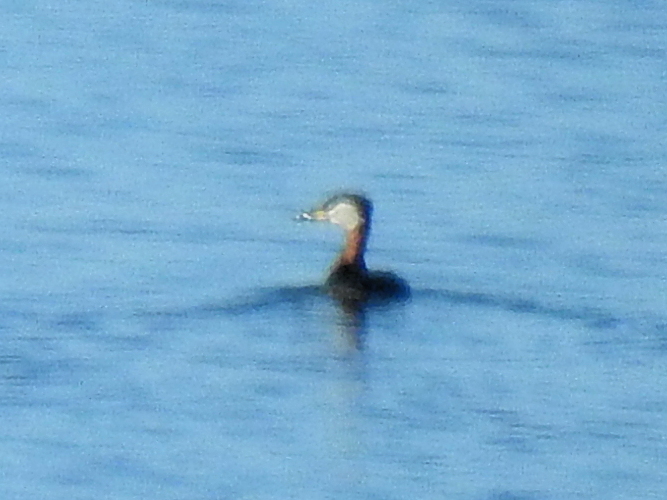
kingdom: Animalia
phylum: Chordata
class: Aves
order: Podicipediformes
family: Podicipedidae
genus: Podiceps
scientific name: Podiceps grisegena
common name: Red-necked grebe
